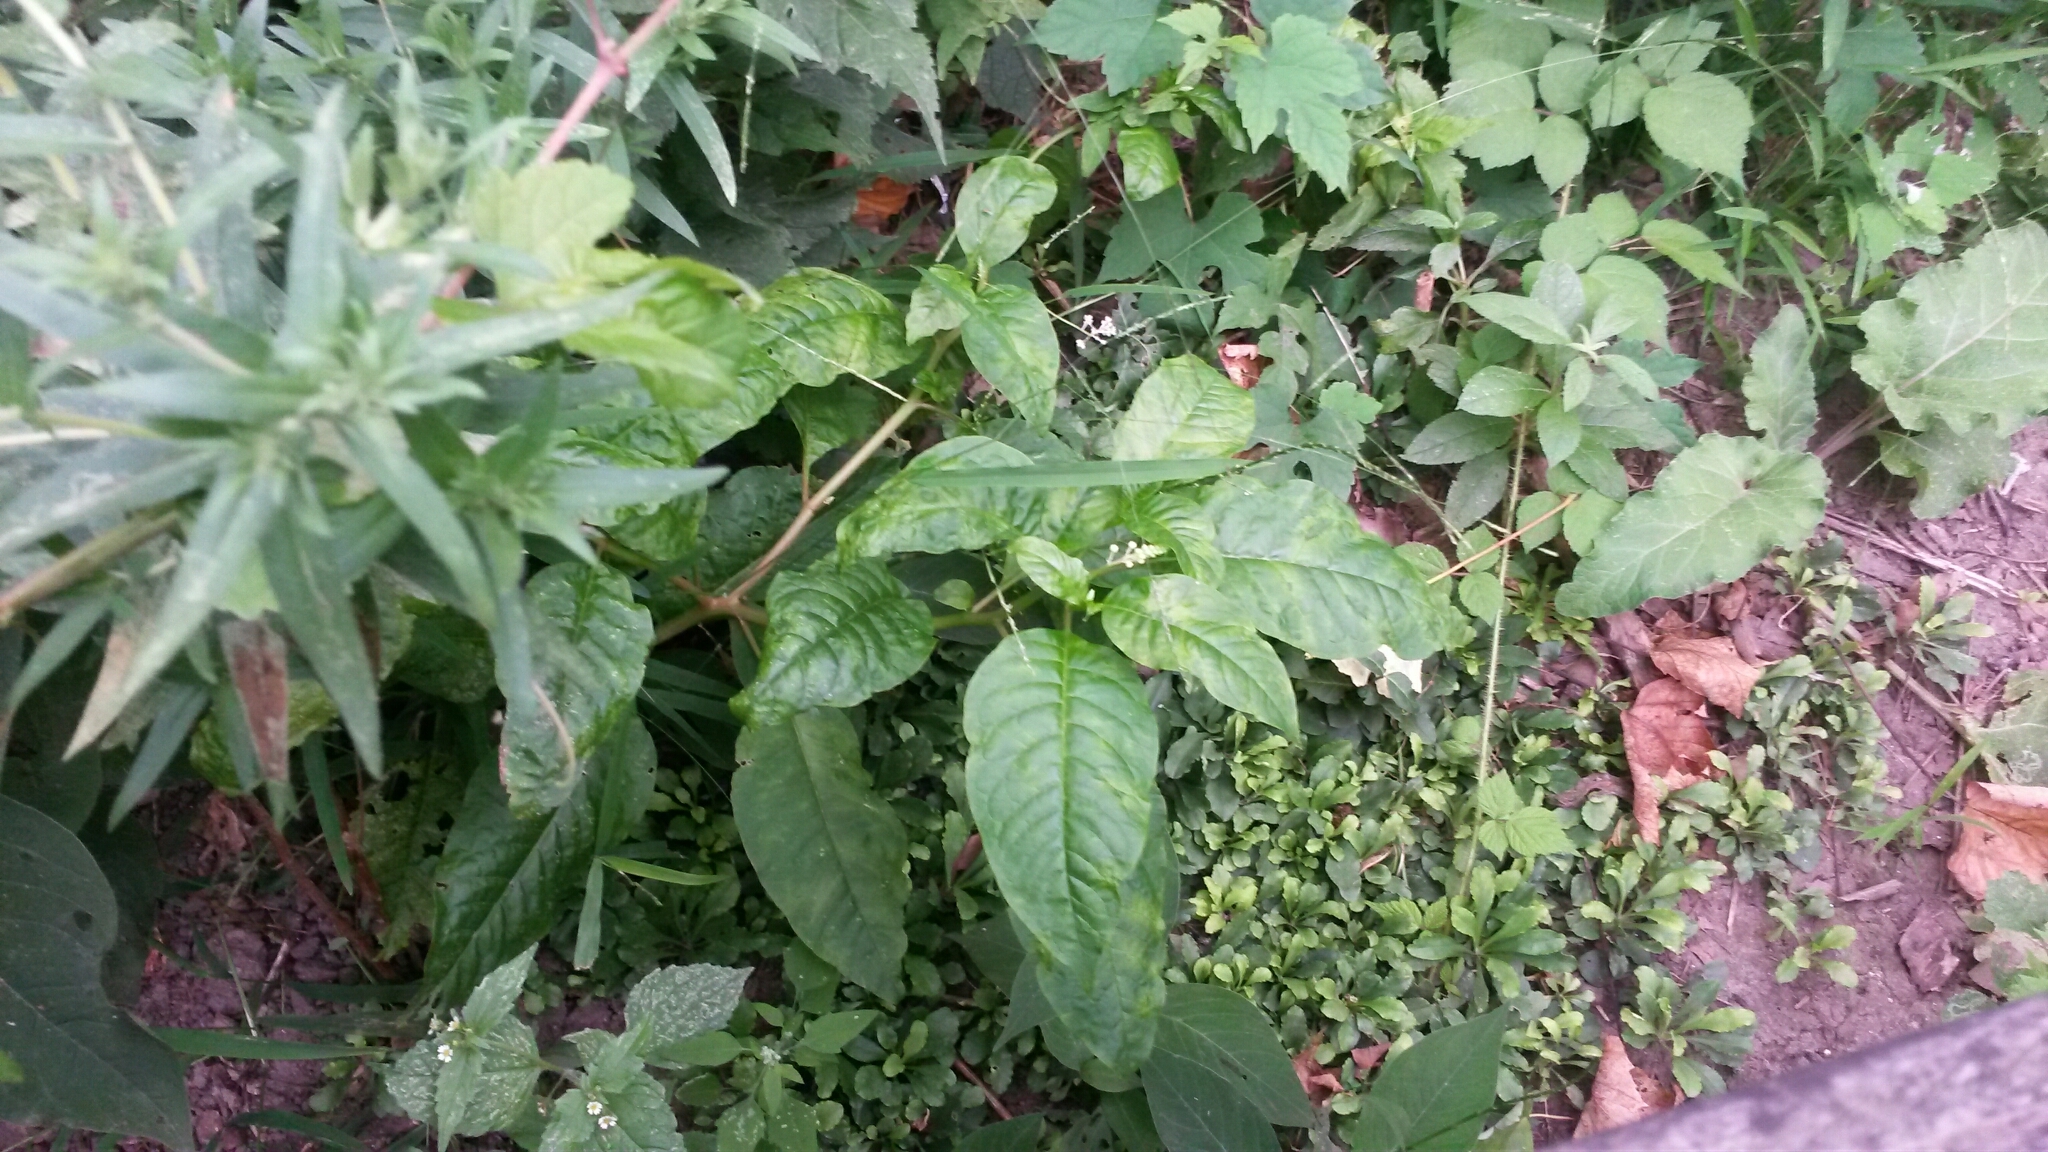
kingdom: Plantae
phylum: Tracheophyta
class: Magnoliopsida
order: Caryophyllales
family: Phytolaccaceae
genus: Phytolacca
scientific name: Phytolacca americana
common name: American pokeweed
